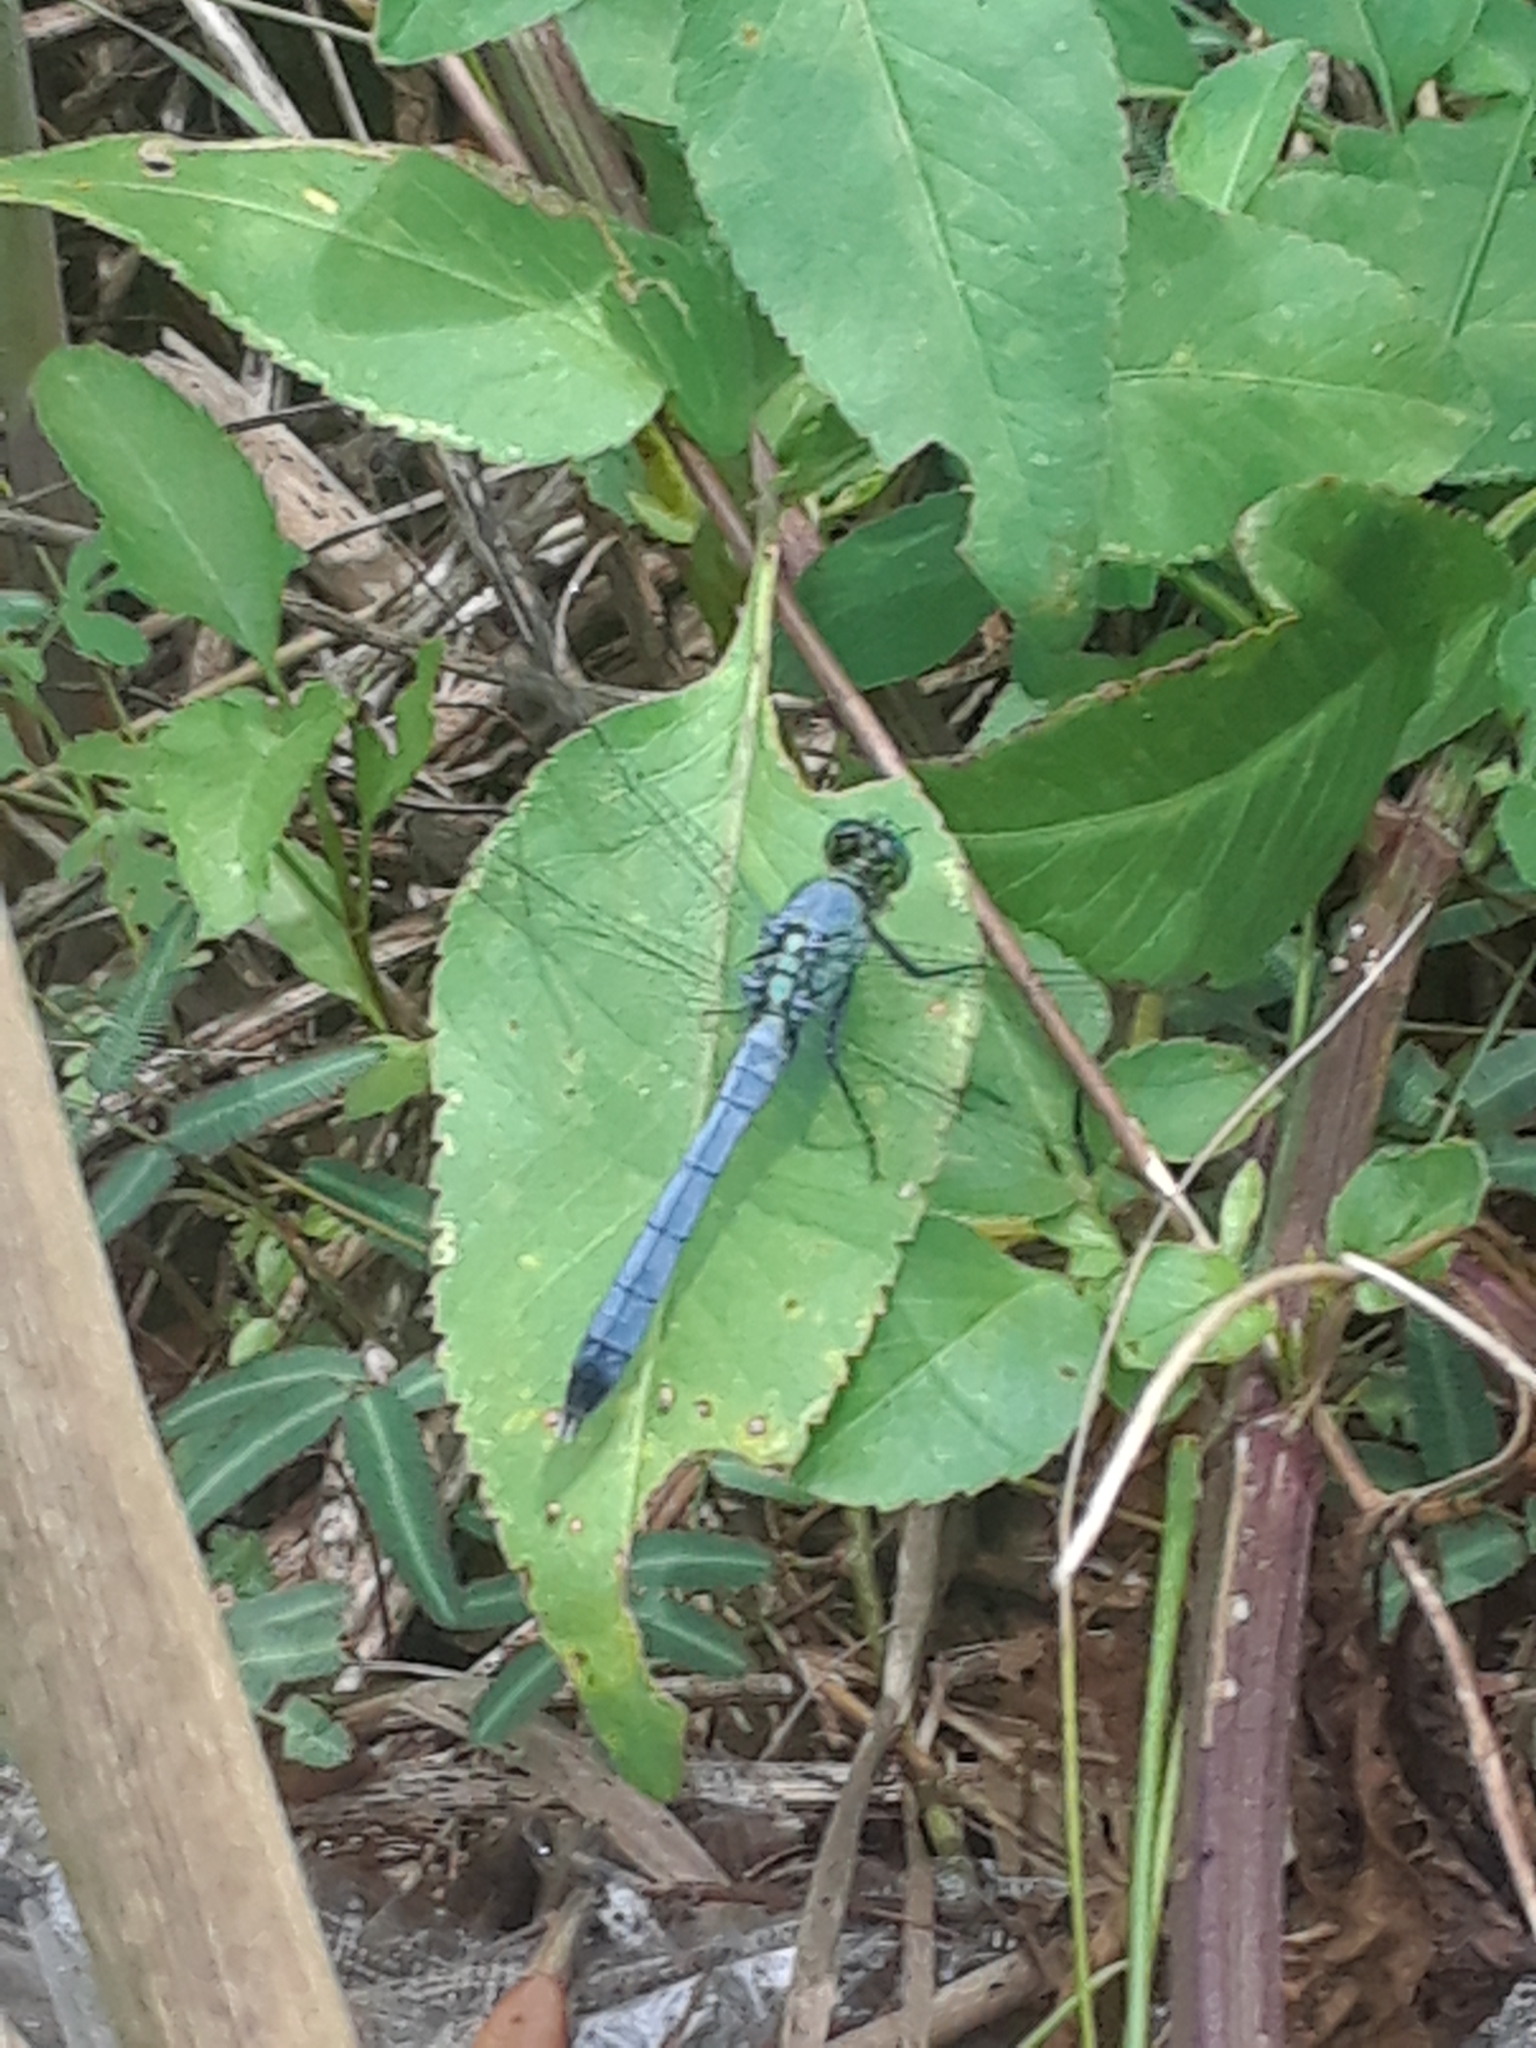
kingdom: Animalia
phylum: Arthropoda
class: Insecta
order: Odonata
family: Libellulidae
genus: Erythemis
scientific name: Erythemis simplicicollis
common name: Eastern pondhawk
